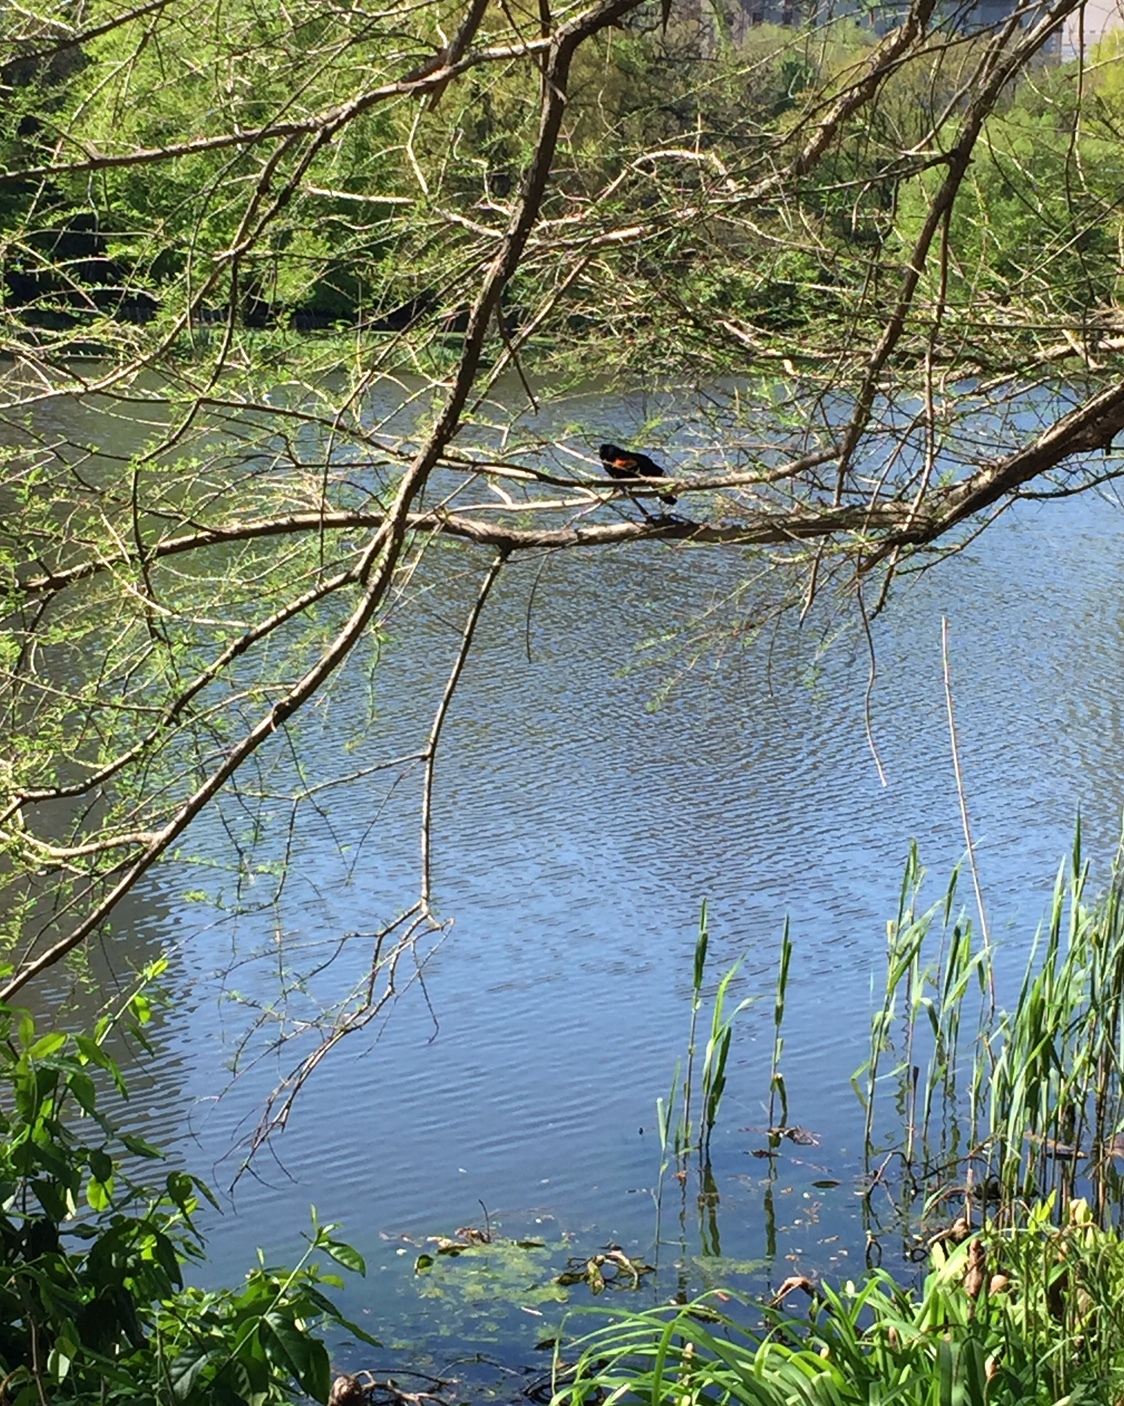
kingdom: Animalia
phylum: Chordata
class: Aves
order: Passeriformes
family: Icteridae
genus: Agelaius
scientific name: Agelaius phoeniceus
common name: Red-winged blackbird
